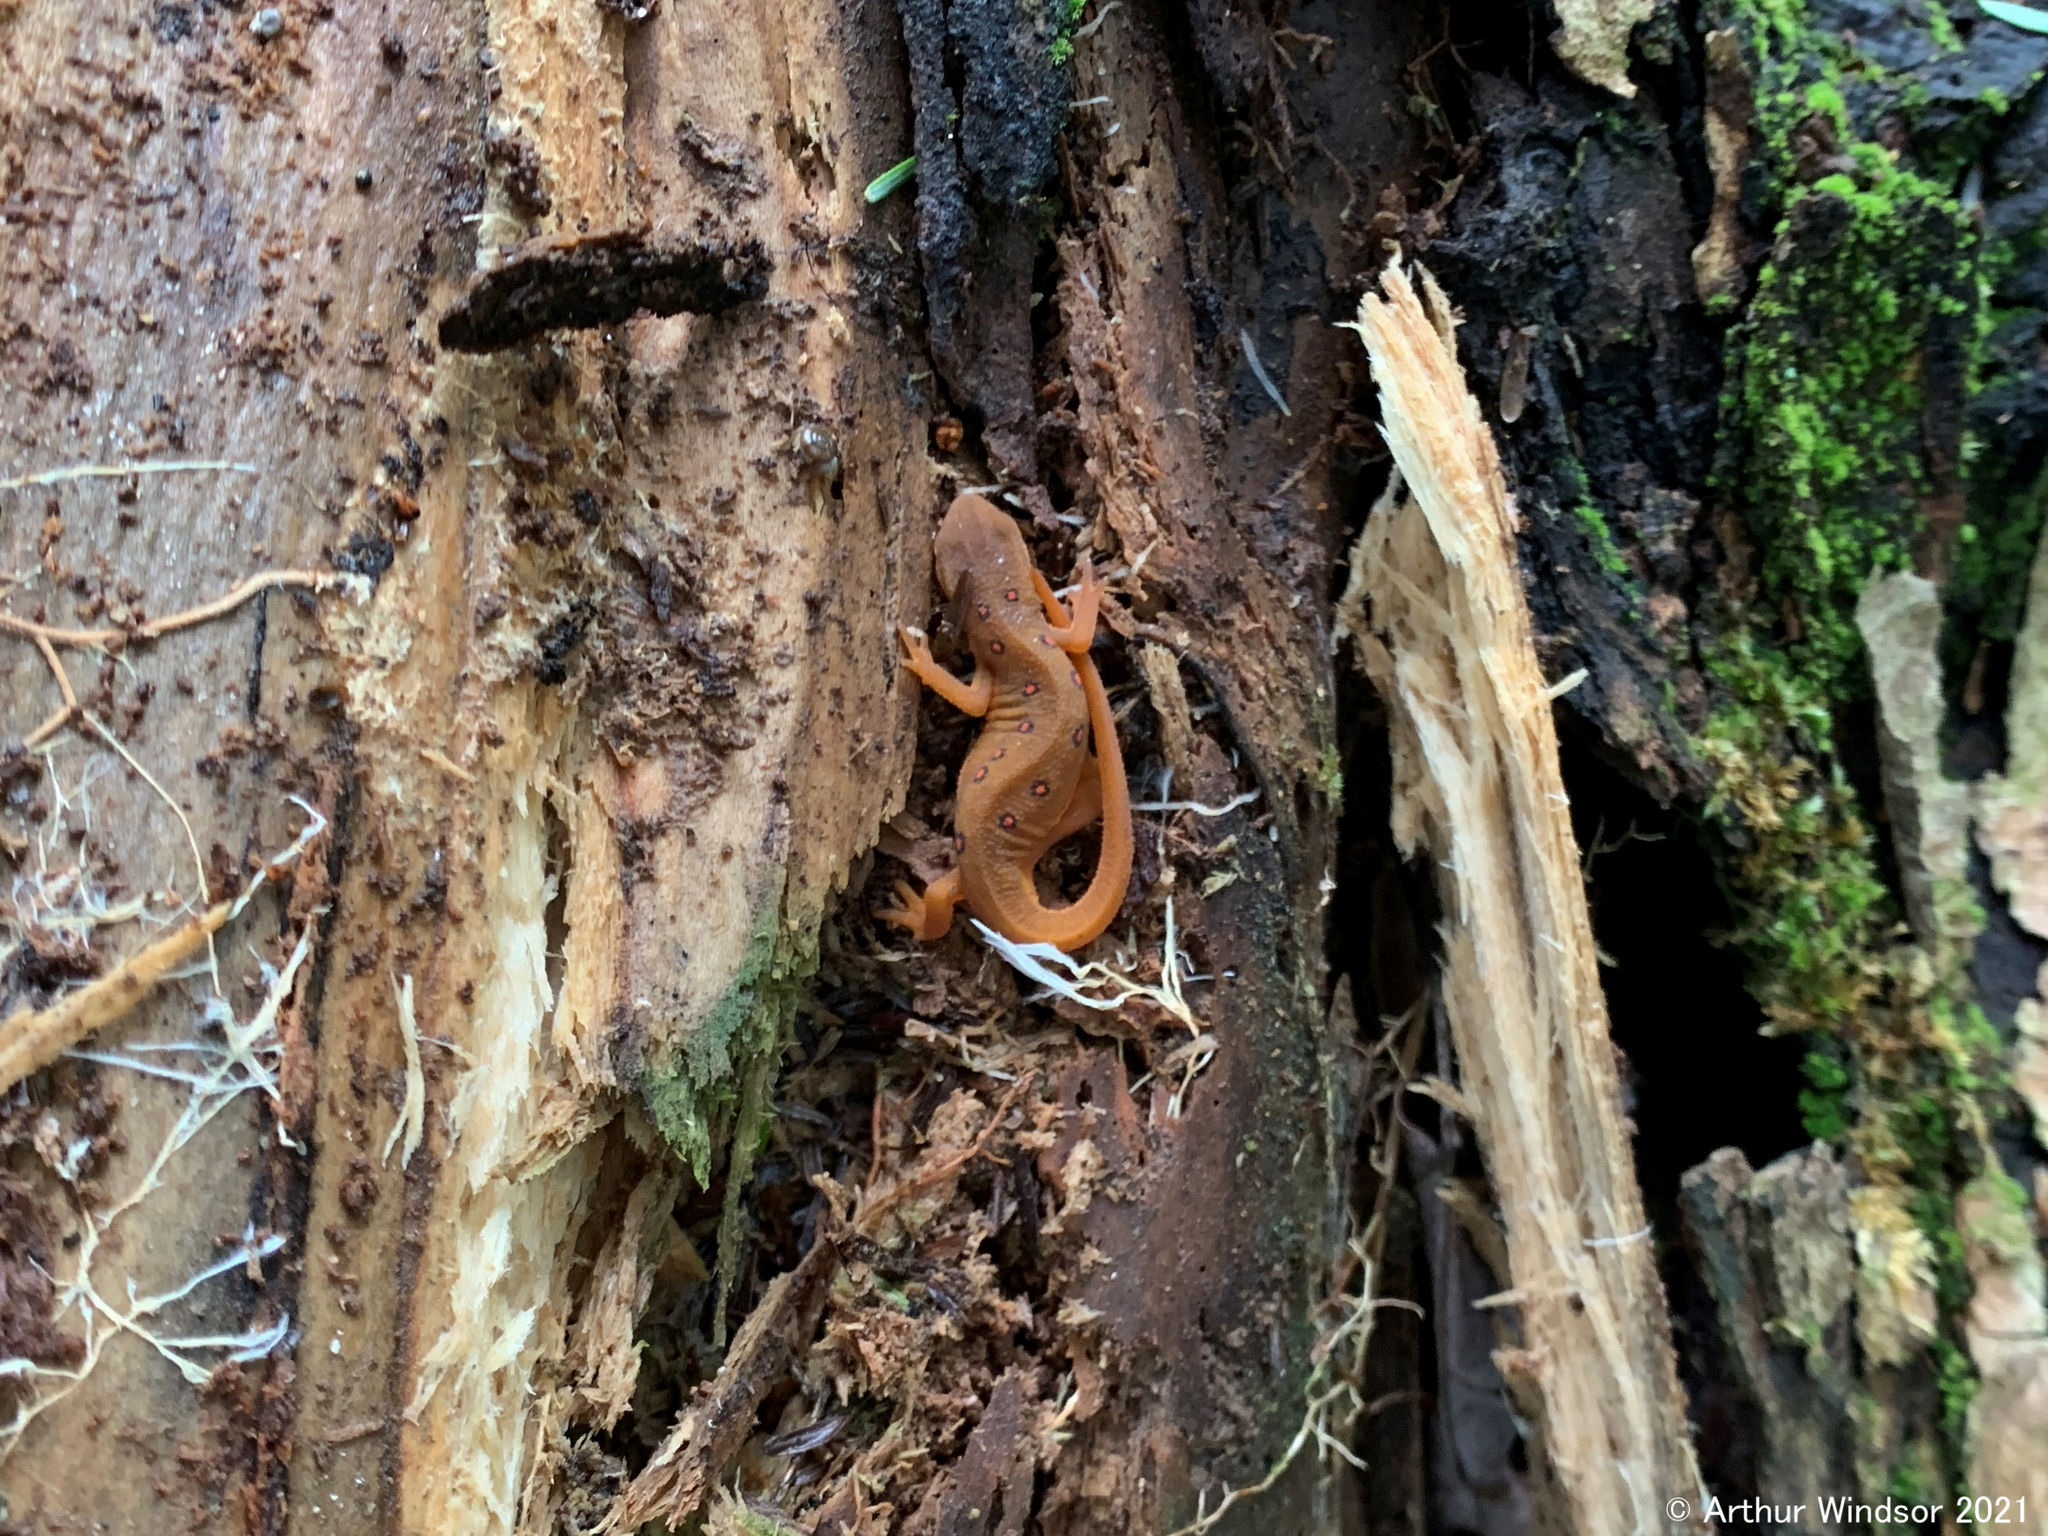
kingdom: Animalia
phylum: Chordata
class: Amphibia
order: Caudata
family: Salamandridae
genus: Notophthalmus
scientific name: Notophthalmus viridescens
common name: Eastern newt
